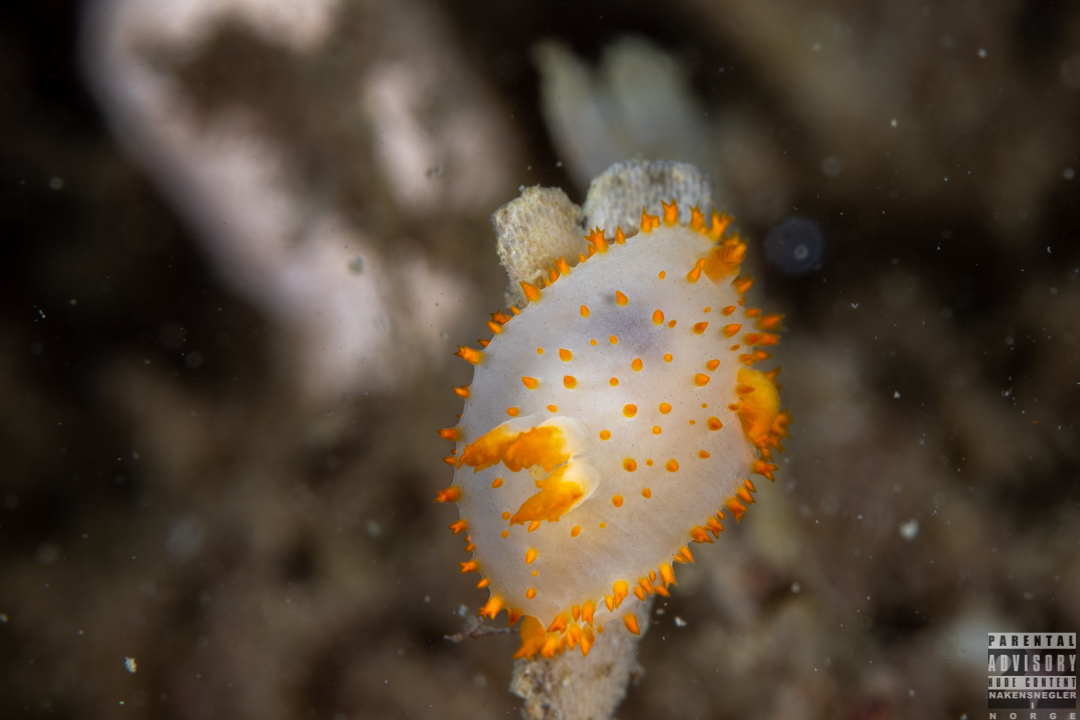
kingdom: Animalia
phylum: Mollusca
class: Gastropoda
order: Nudibranchia
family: Polyceridae
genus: Crimora
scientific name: Crimora papillata
